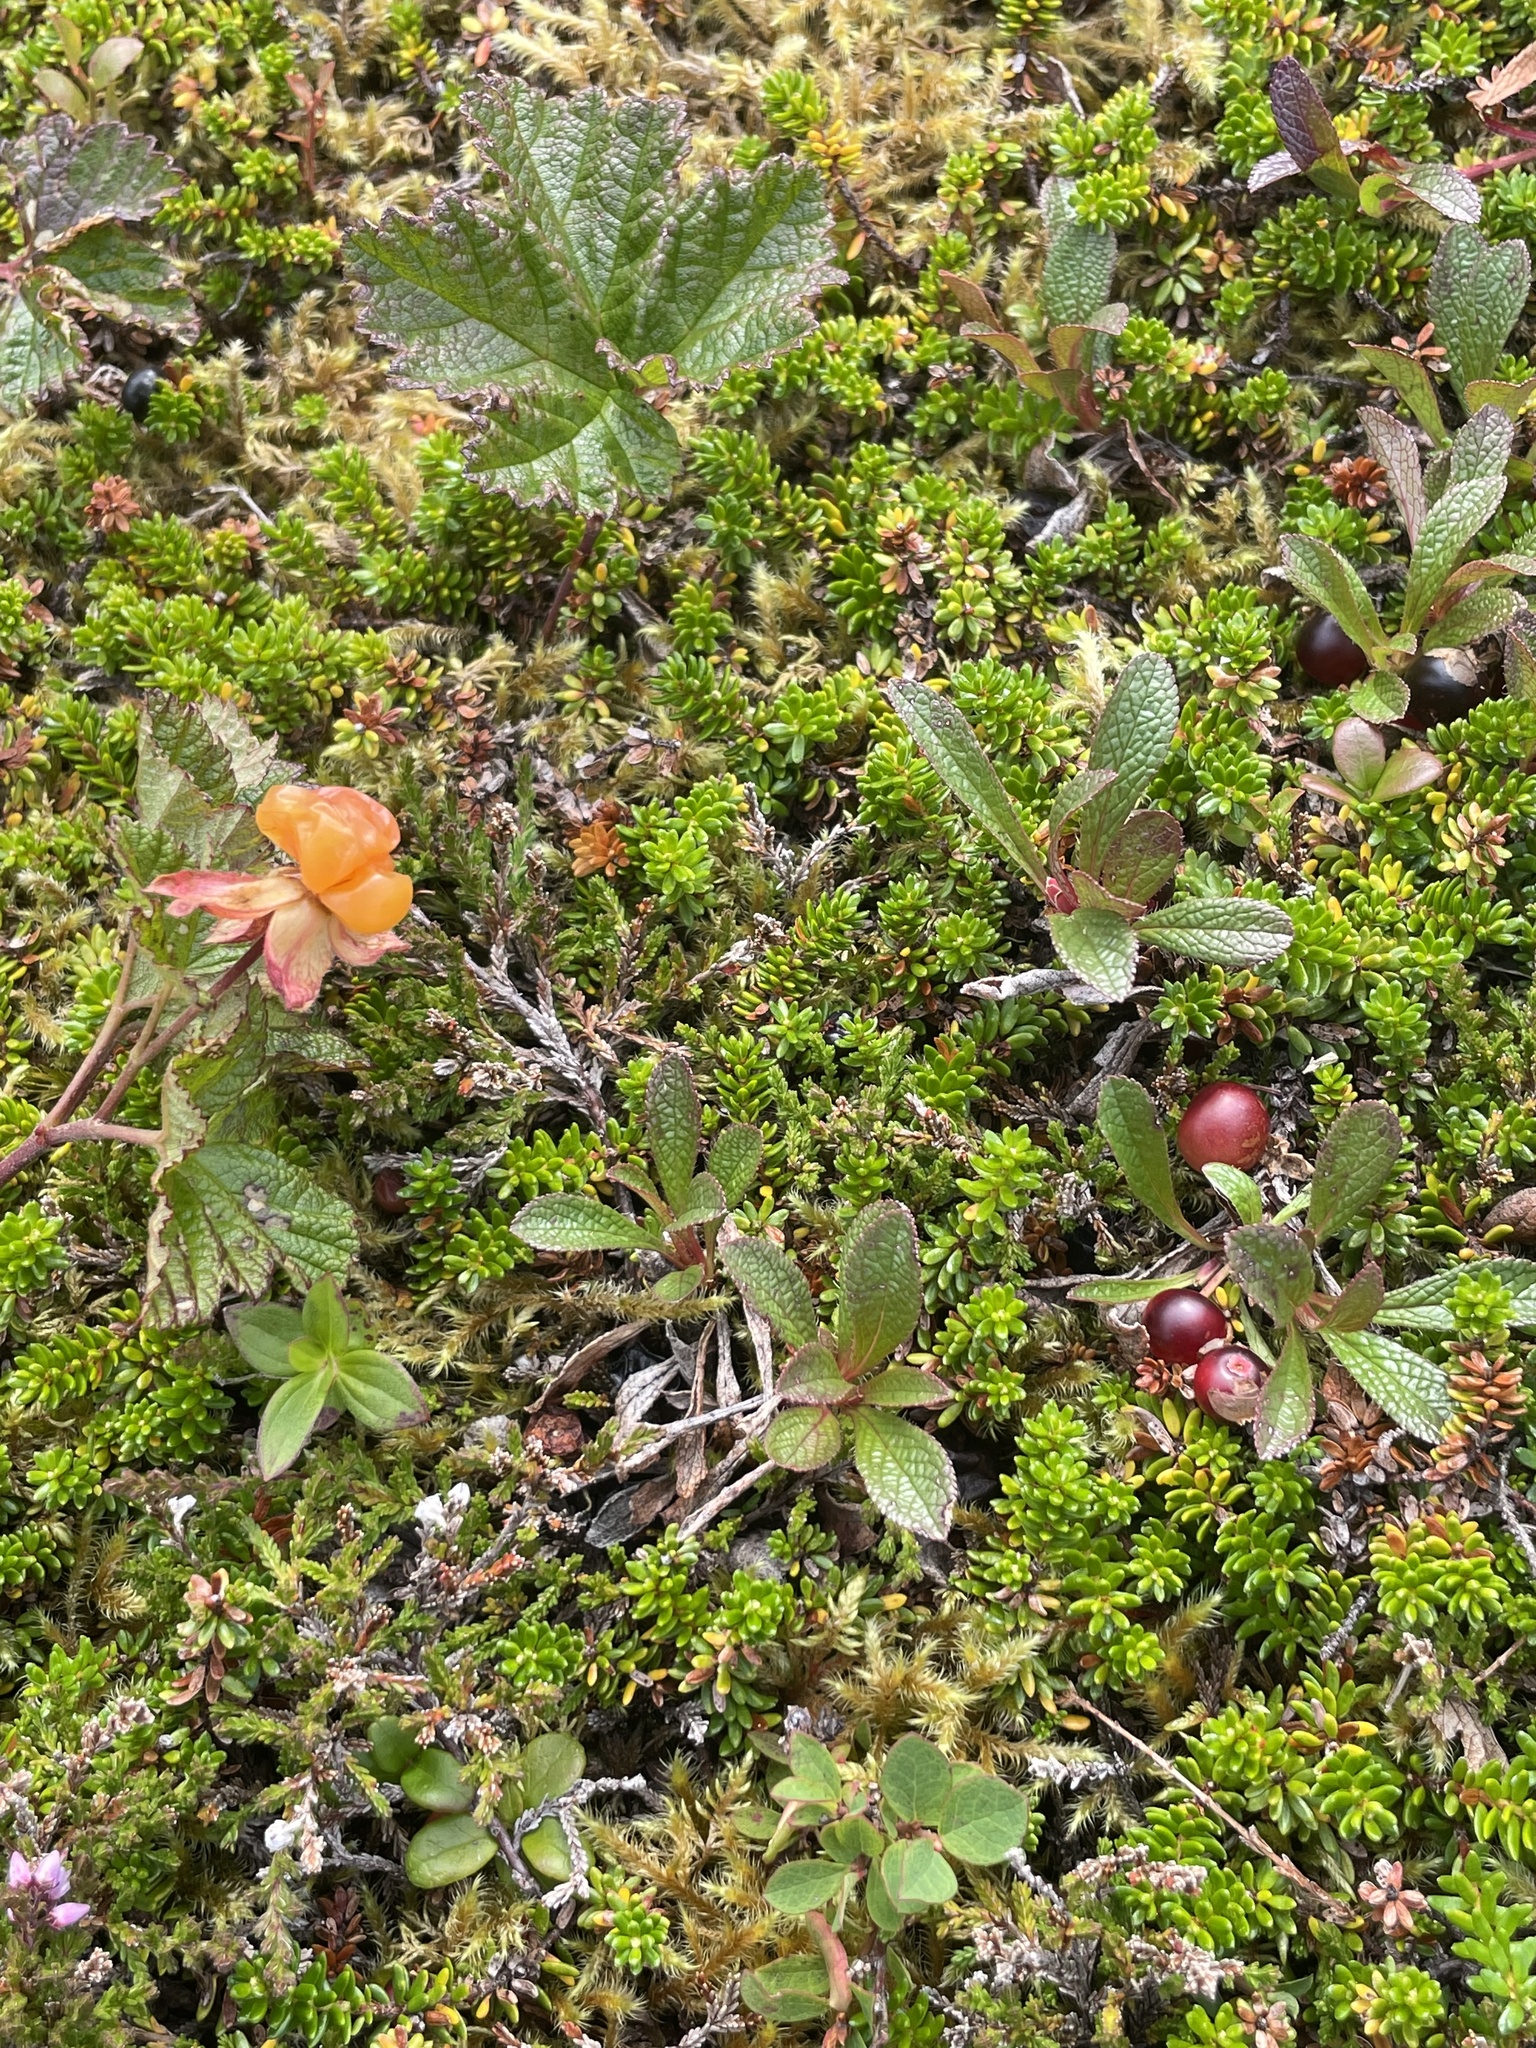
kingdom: Plantae
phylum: Tracheophyta
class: Magnoliopsida
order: Rosales
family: Rosaceae
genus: Rubus
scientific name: Rubus chamaemorus
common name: Cloudberry
